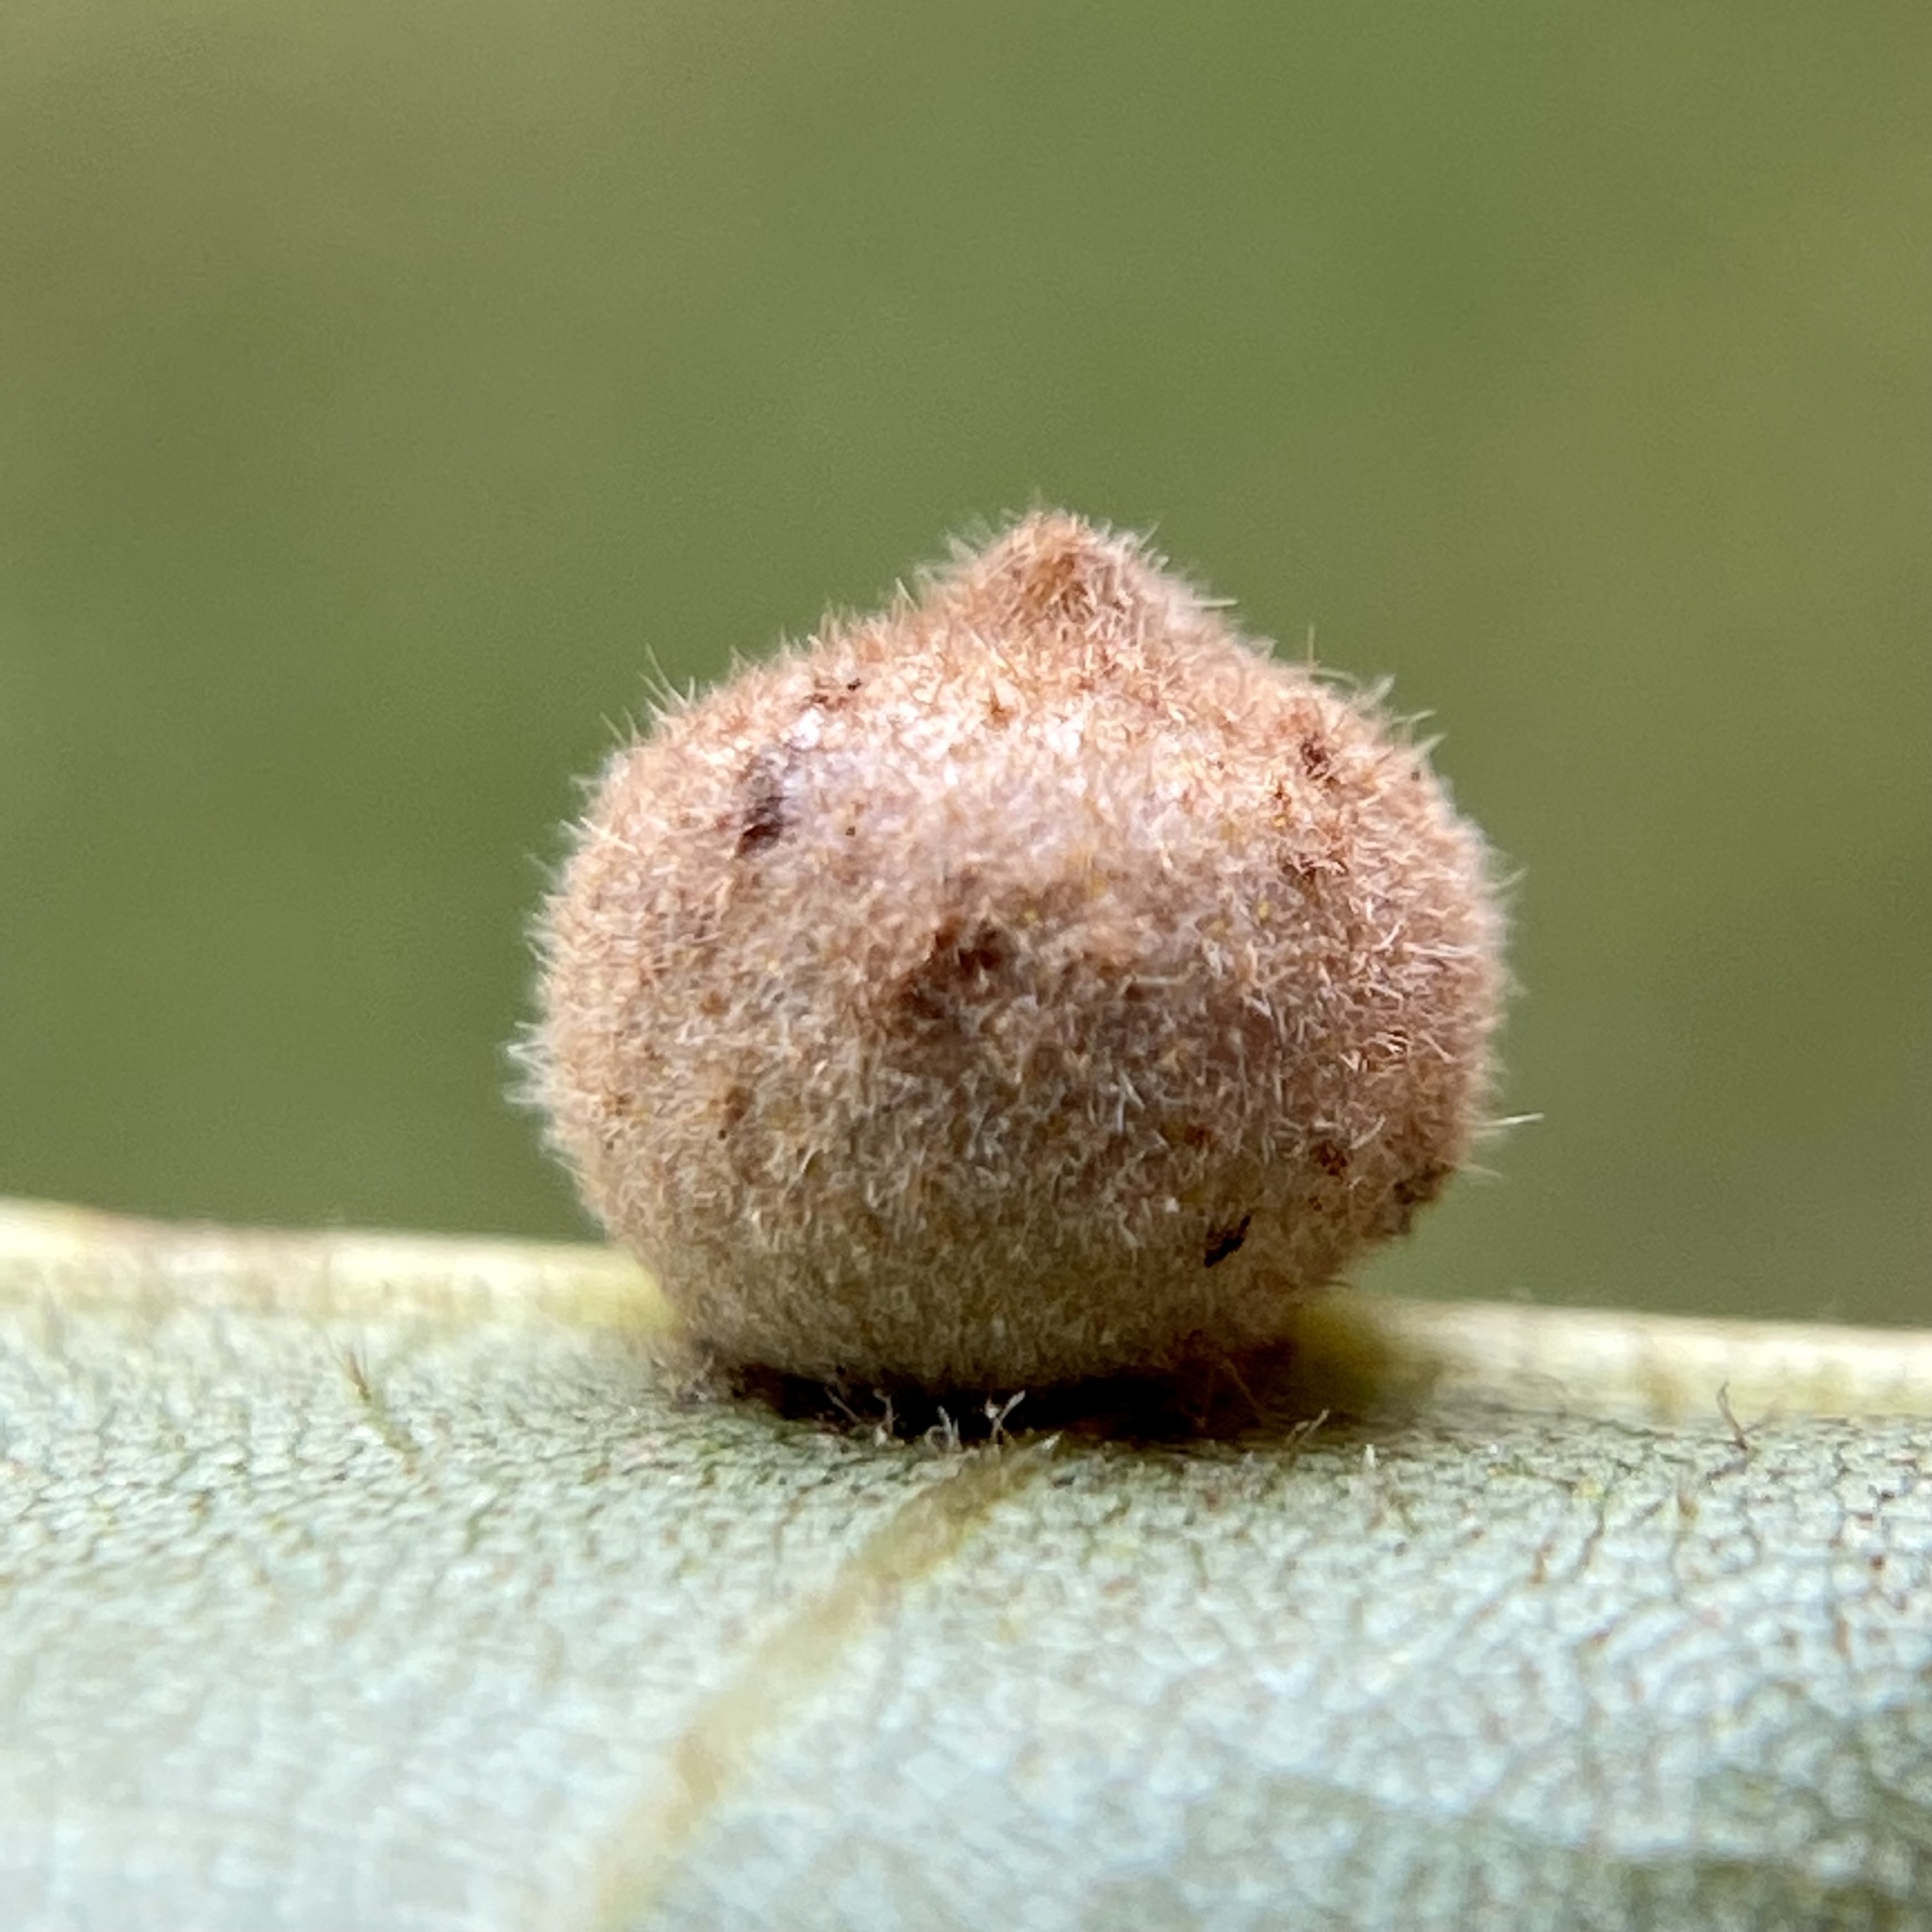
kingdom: Animalia
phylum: Arthropoda
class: Insecta
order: Diptera
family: Cecidomyiidae
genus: Caryomyia
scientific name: Caryomyia
